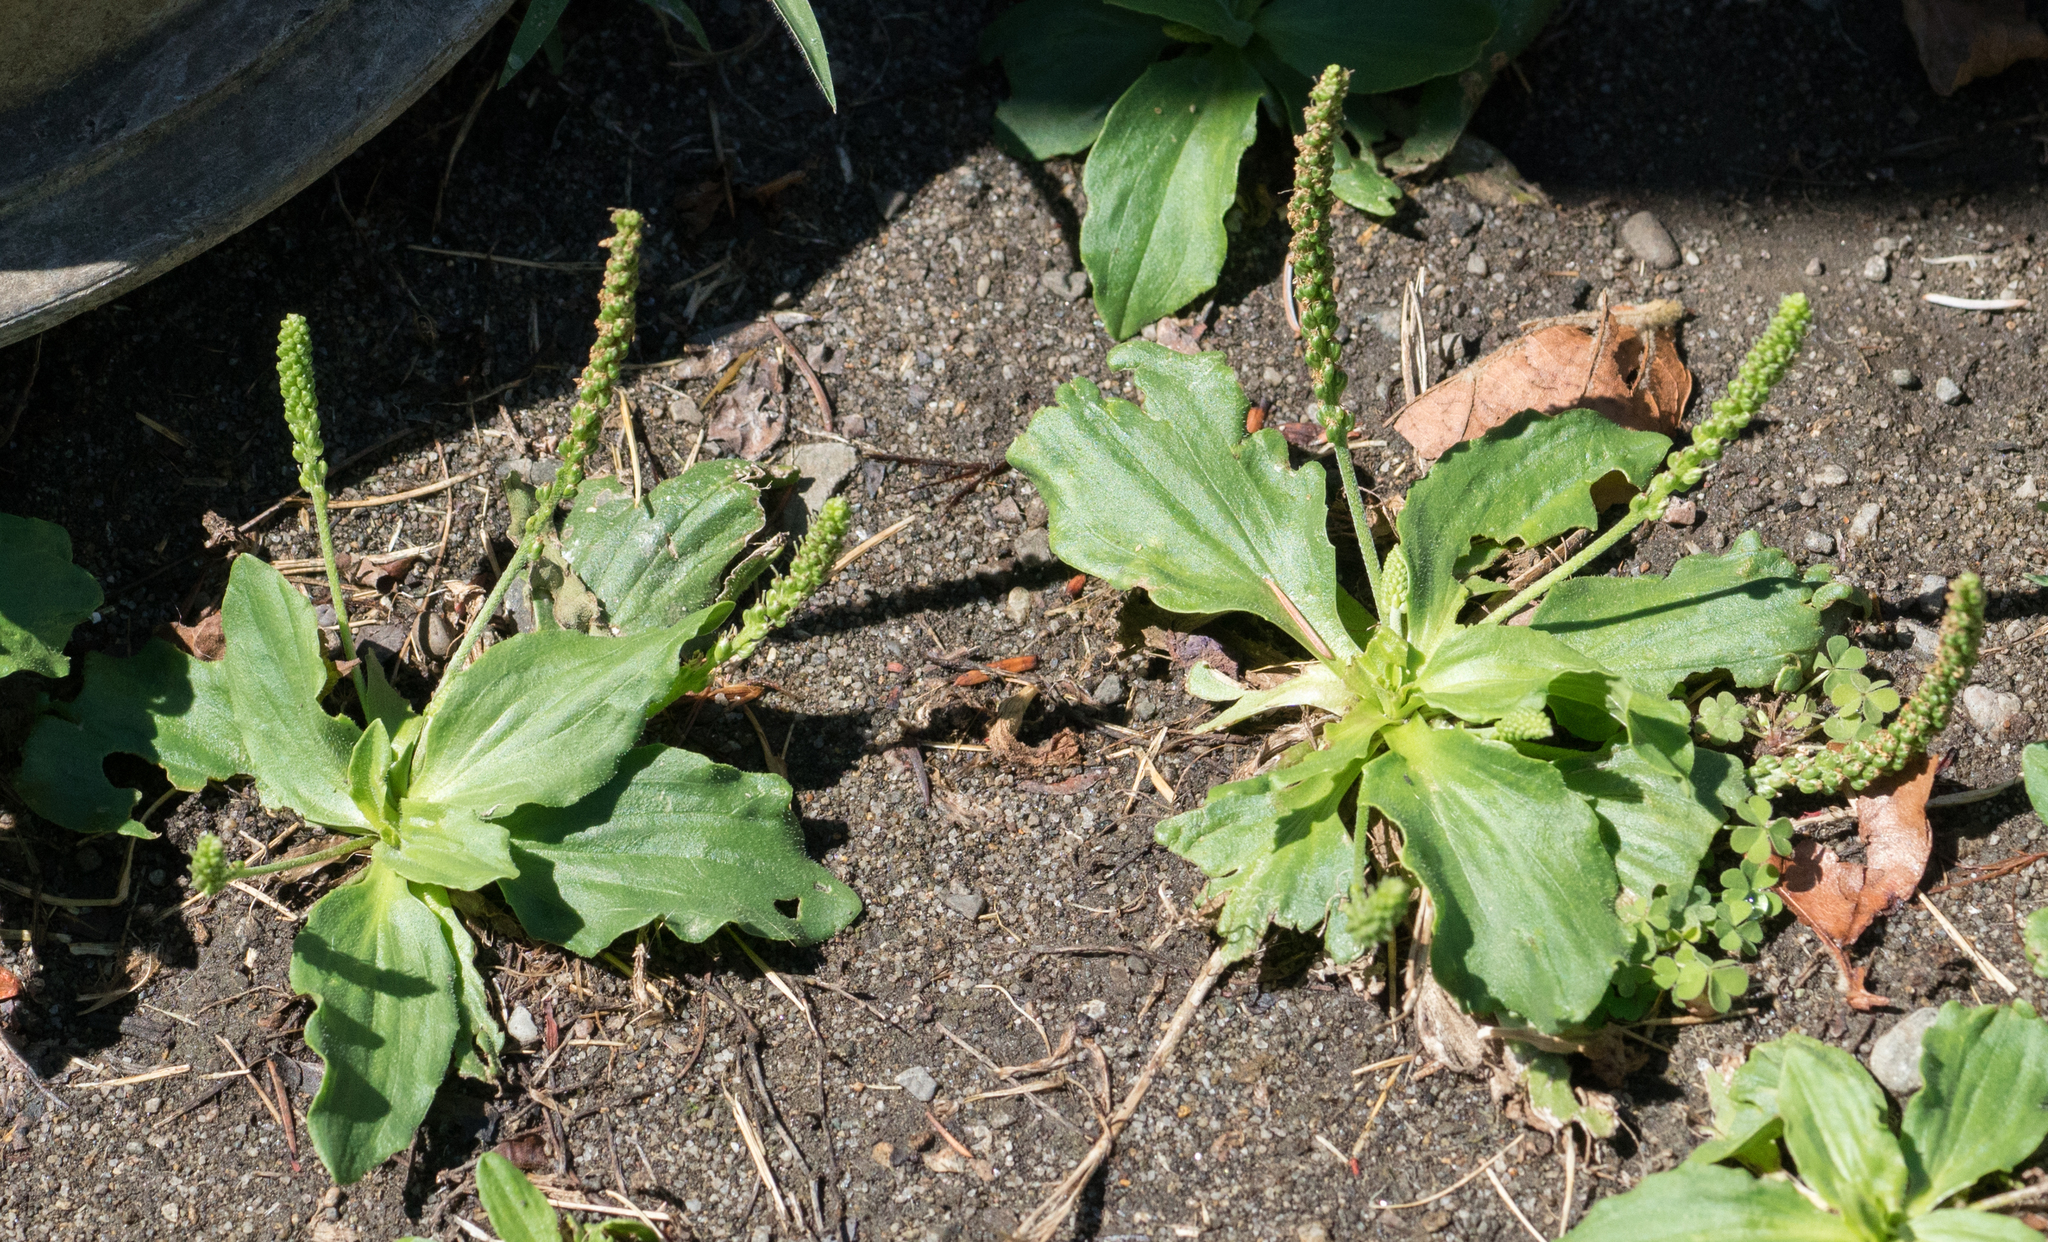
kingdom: Plantae
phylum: Tracheophyta
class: Magnoliopsida
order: Lamiales
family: Plantaginaceae
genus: Plantago
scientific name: Plantago major
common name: Common plantain
